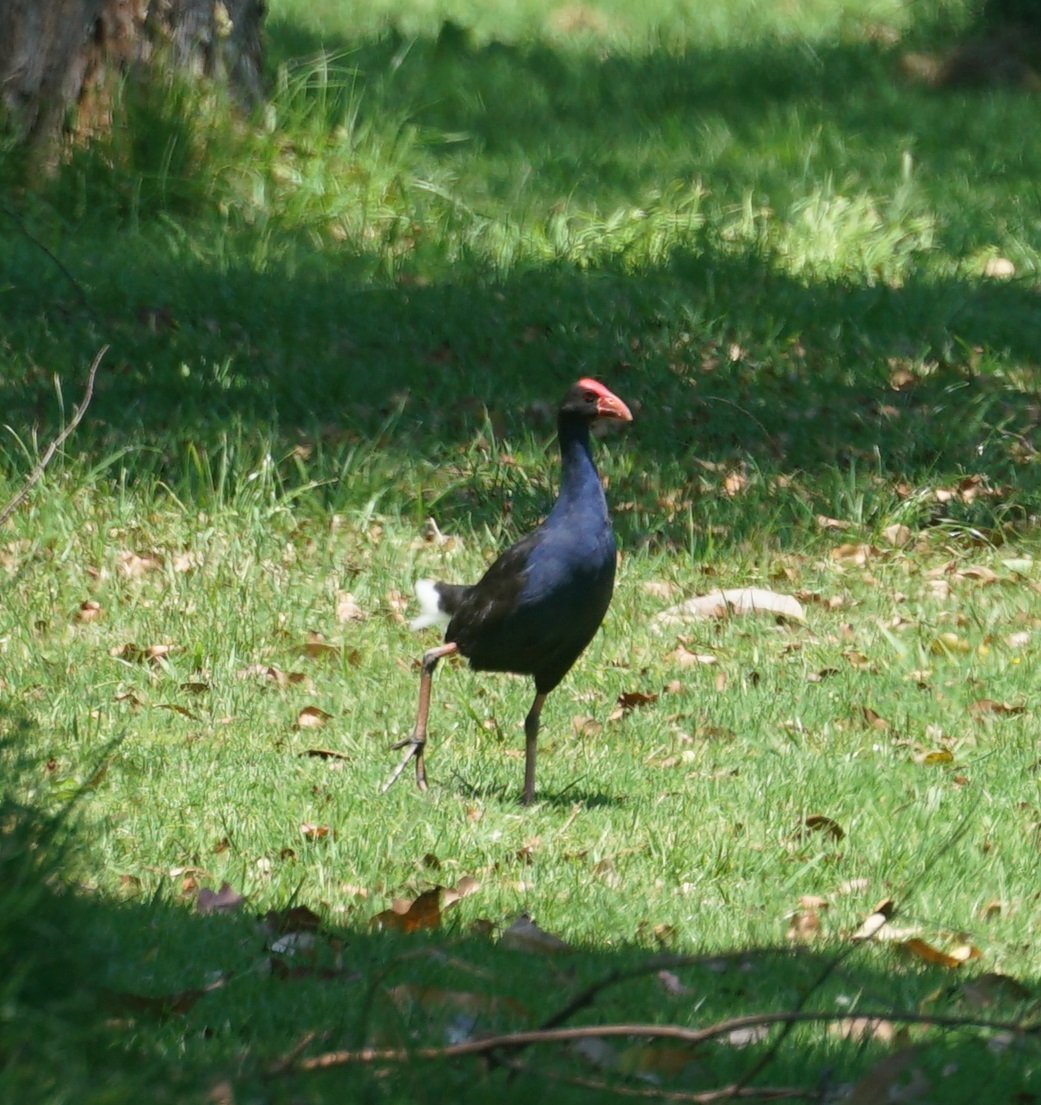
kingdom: Animalia
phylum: Chordata
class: Aves
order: Gruiformes
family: Rallidae
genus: Porphyrio
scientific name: Porphyrio melanotus
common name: Australasian swamphen
